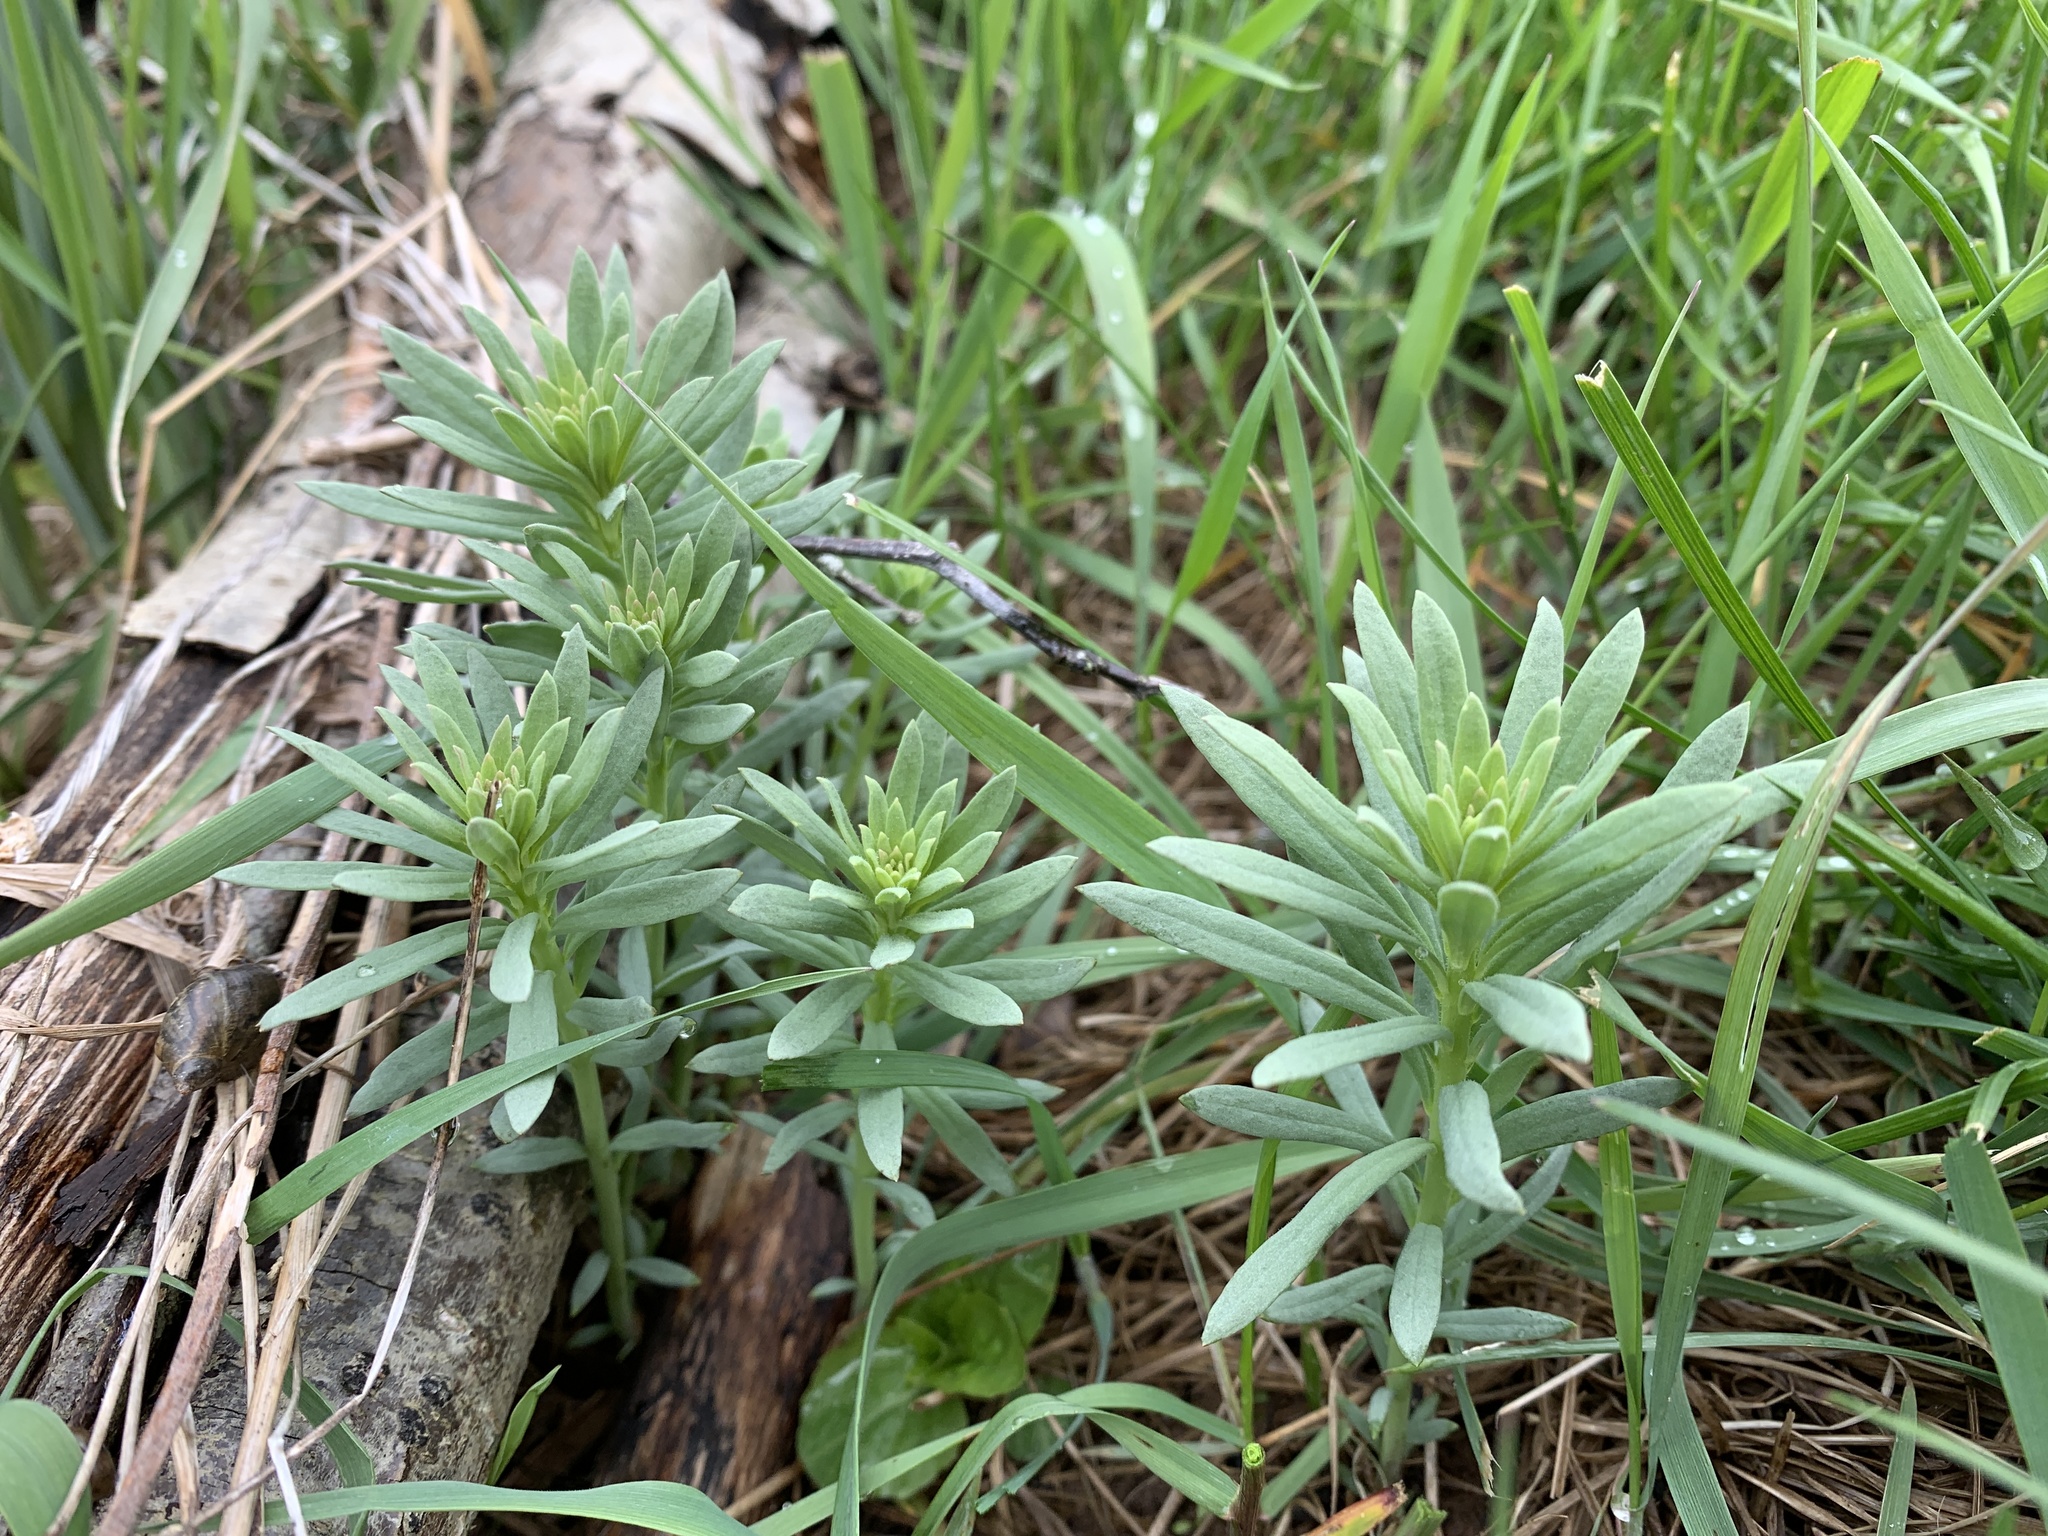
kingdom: Plantae
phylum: Tracheophyta
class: Magnoliopsida
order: Lamiales
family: Plantaginaceae
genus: Linaria
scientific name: Linaria vulgaris
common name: Butter and eggs
